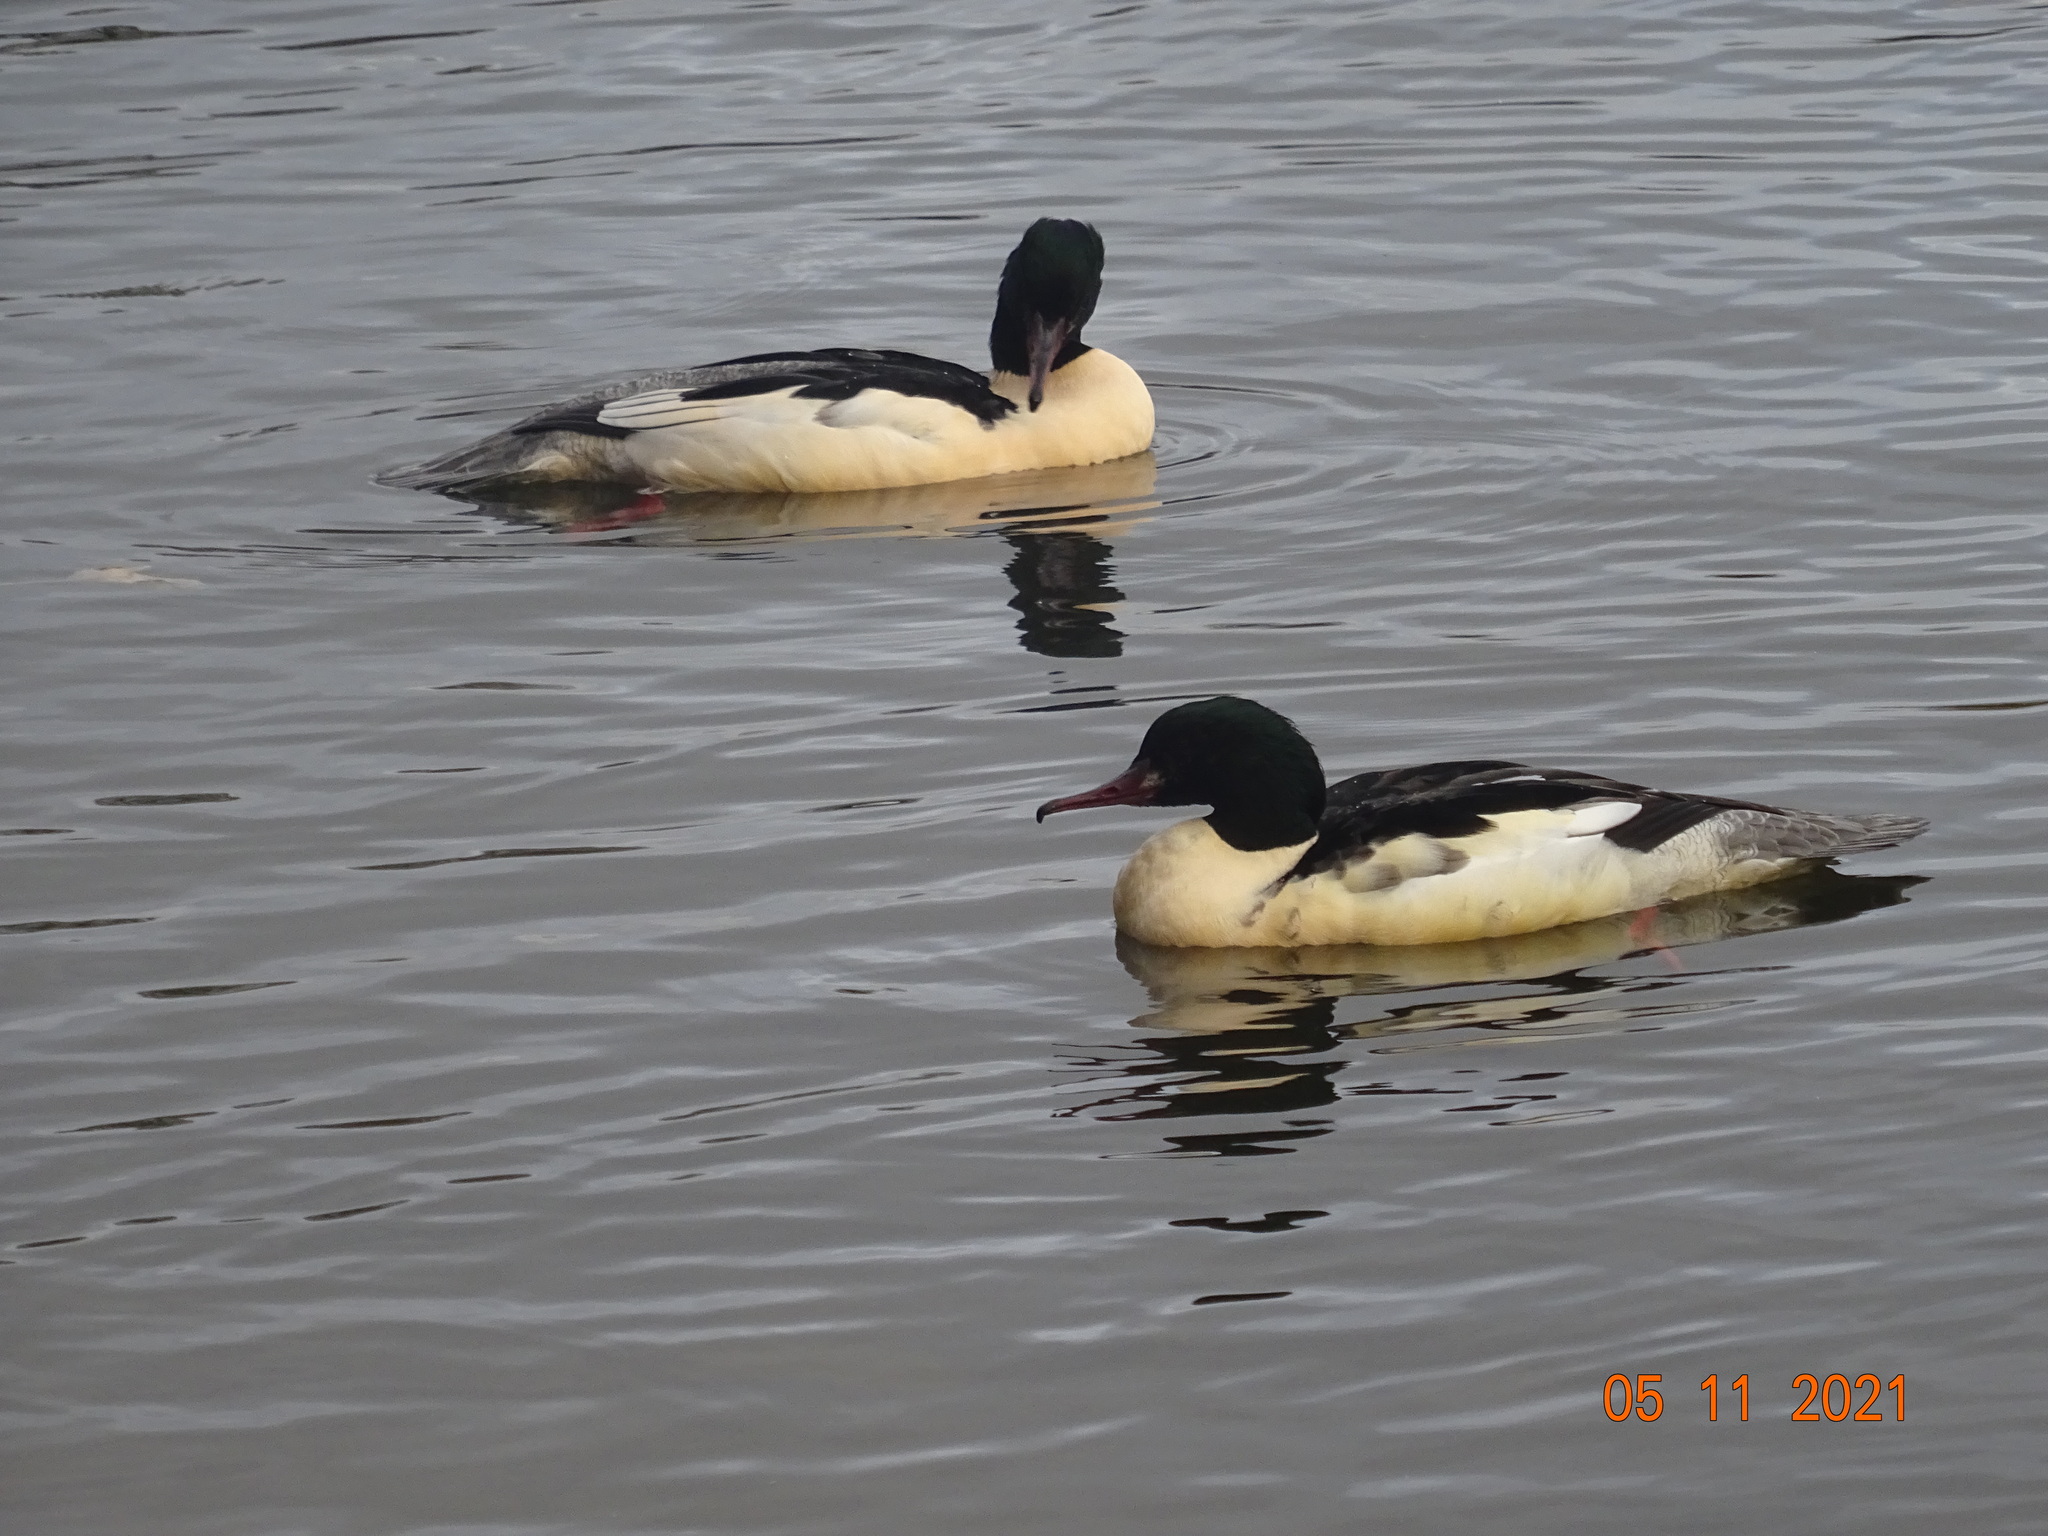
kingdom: Animalia
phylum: Chordata
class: Aves
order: Anseriformes
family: Anatidae
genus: Mergus
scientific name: Mergus merganser
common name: Common merganser
